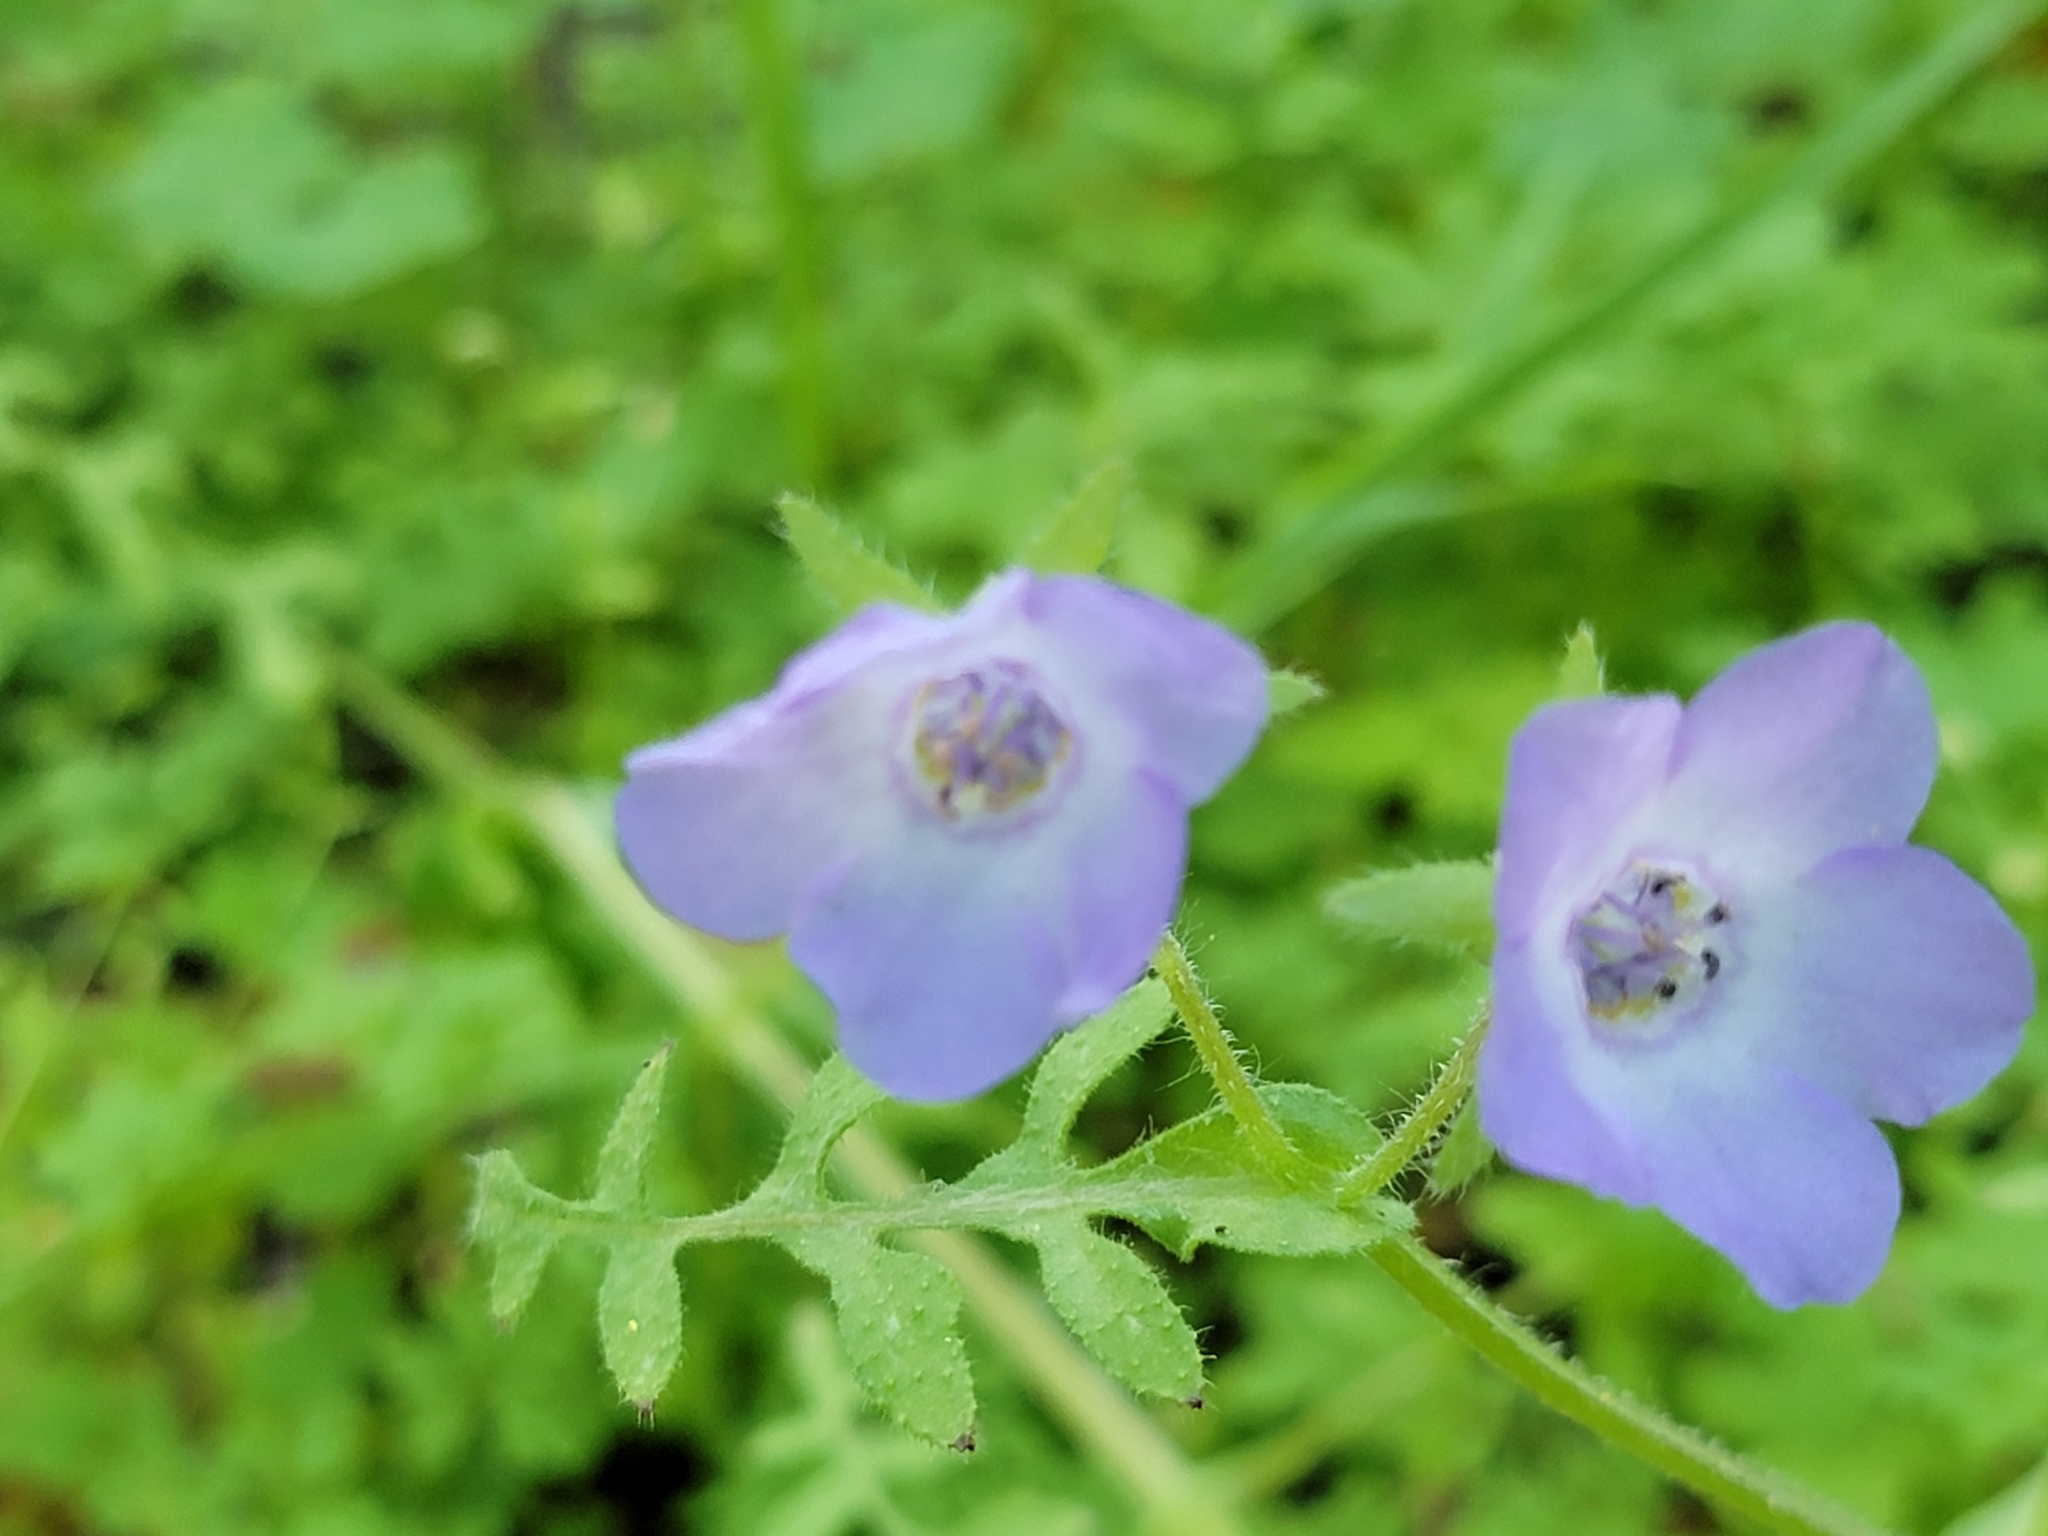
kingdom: Plantae
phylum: Tracheophyta
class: Magnoliopsida
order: Boraginales
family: Hydrophyllaceae
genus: Pholistoma
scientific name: Pholistoma auritum
